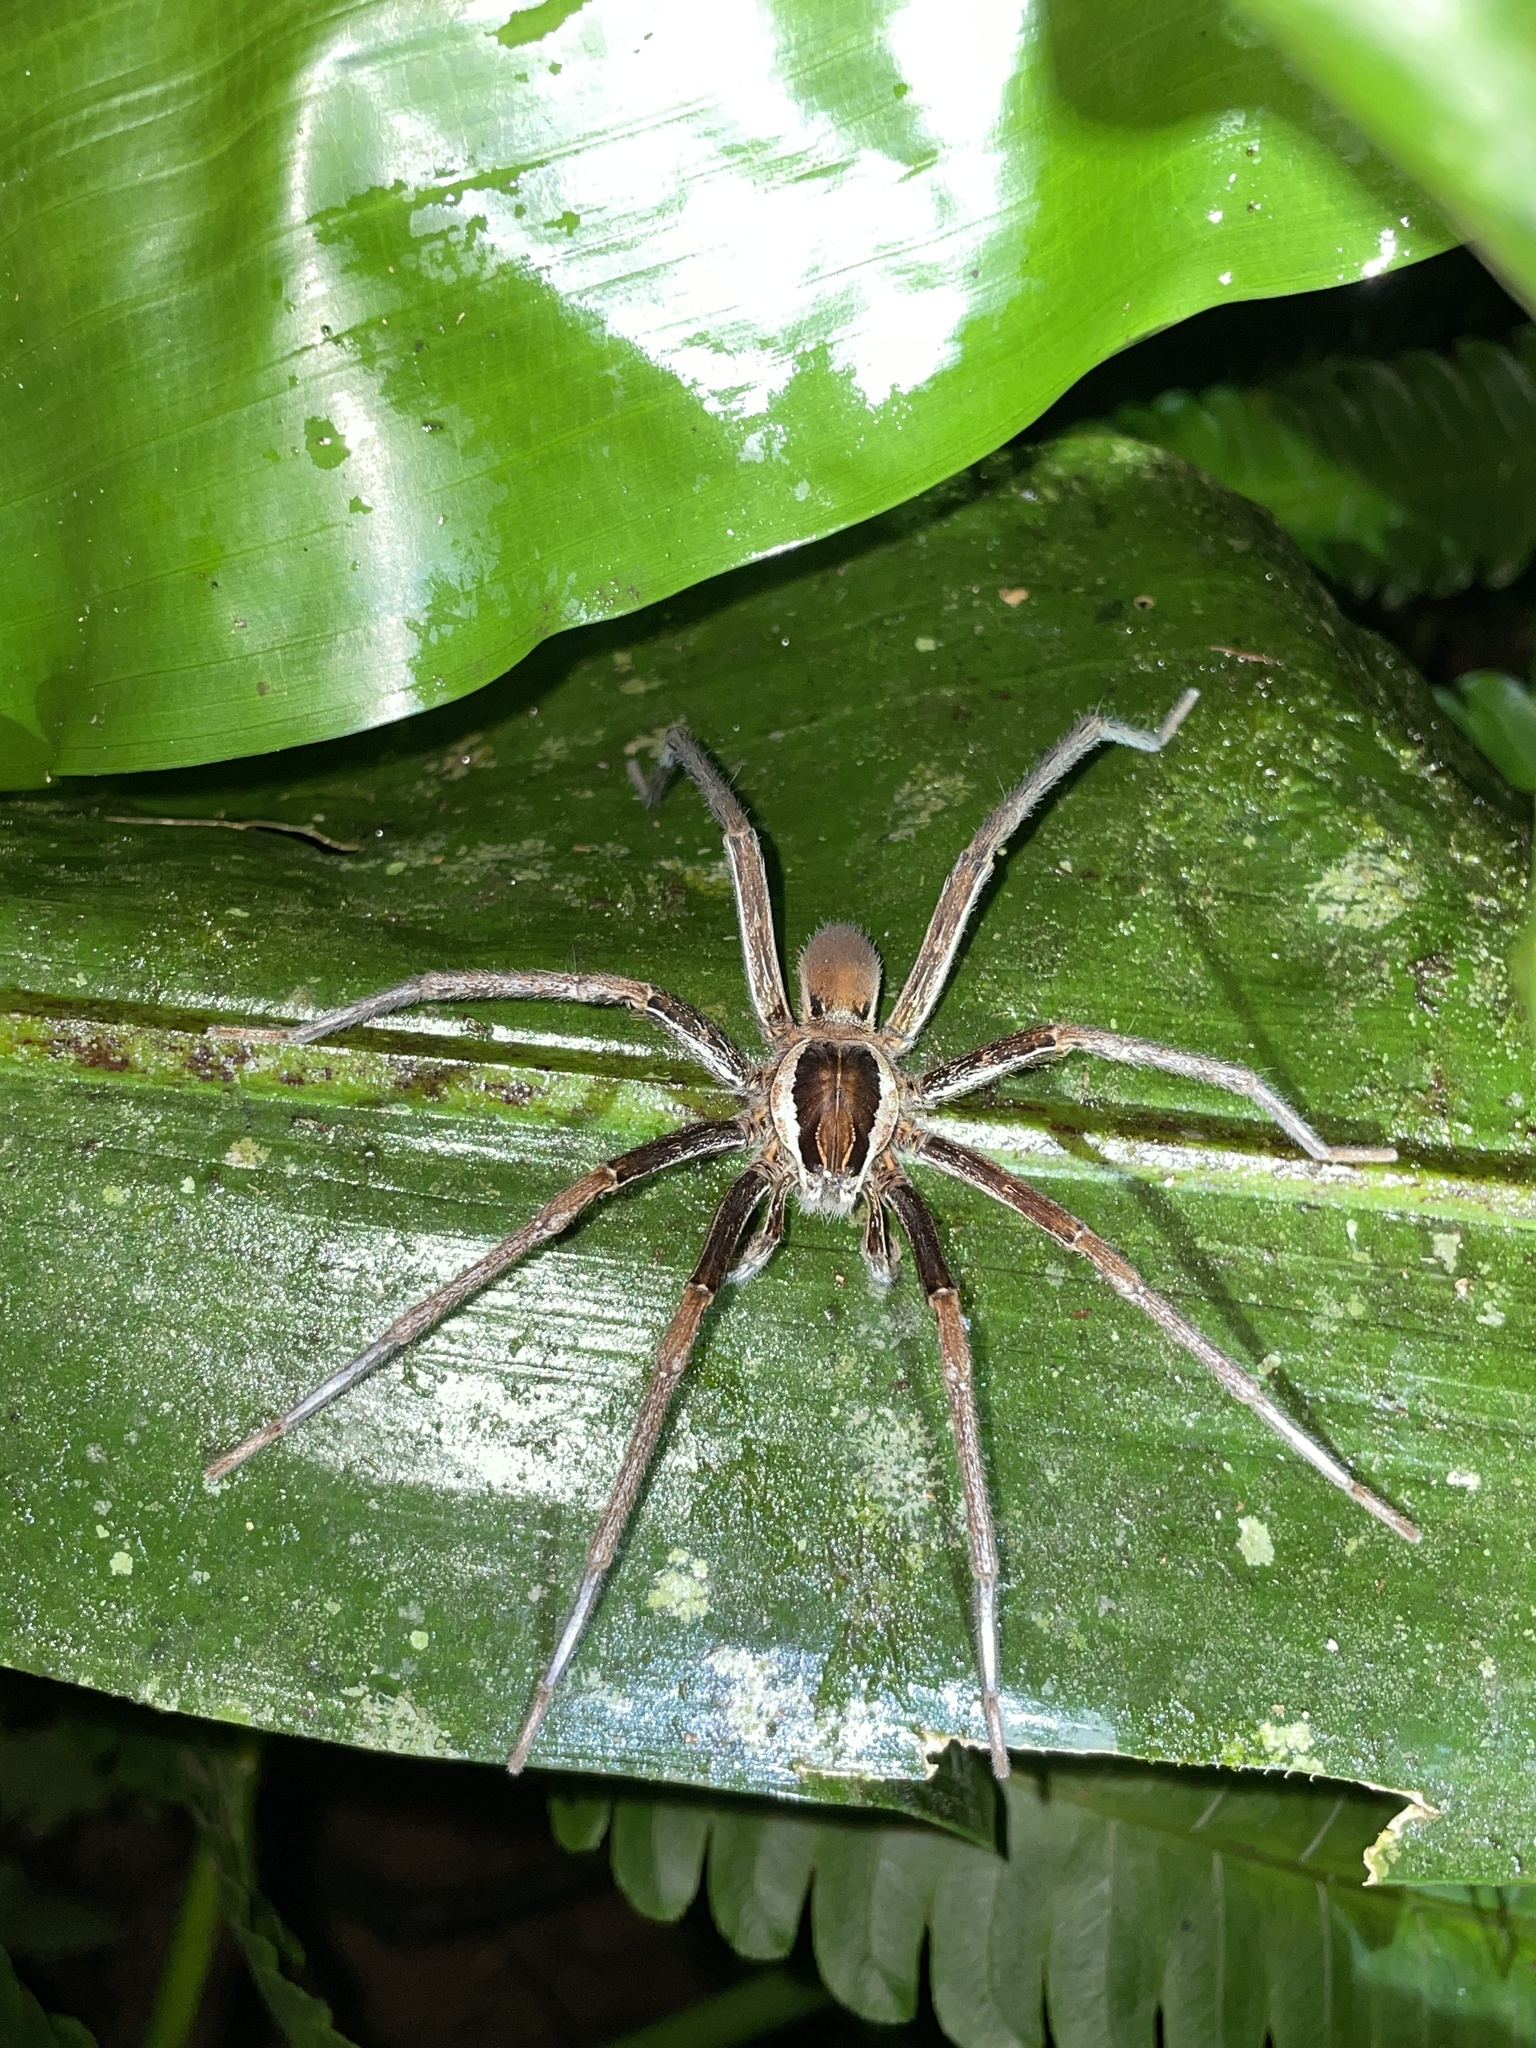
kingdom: Animalia
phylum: Arthropoda
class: Arachnida
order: Araneae
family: Ctenidae
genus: Ancylometes
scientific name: Ancylometes bogotensis
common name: Wandering spiders
